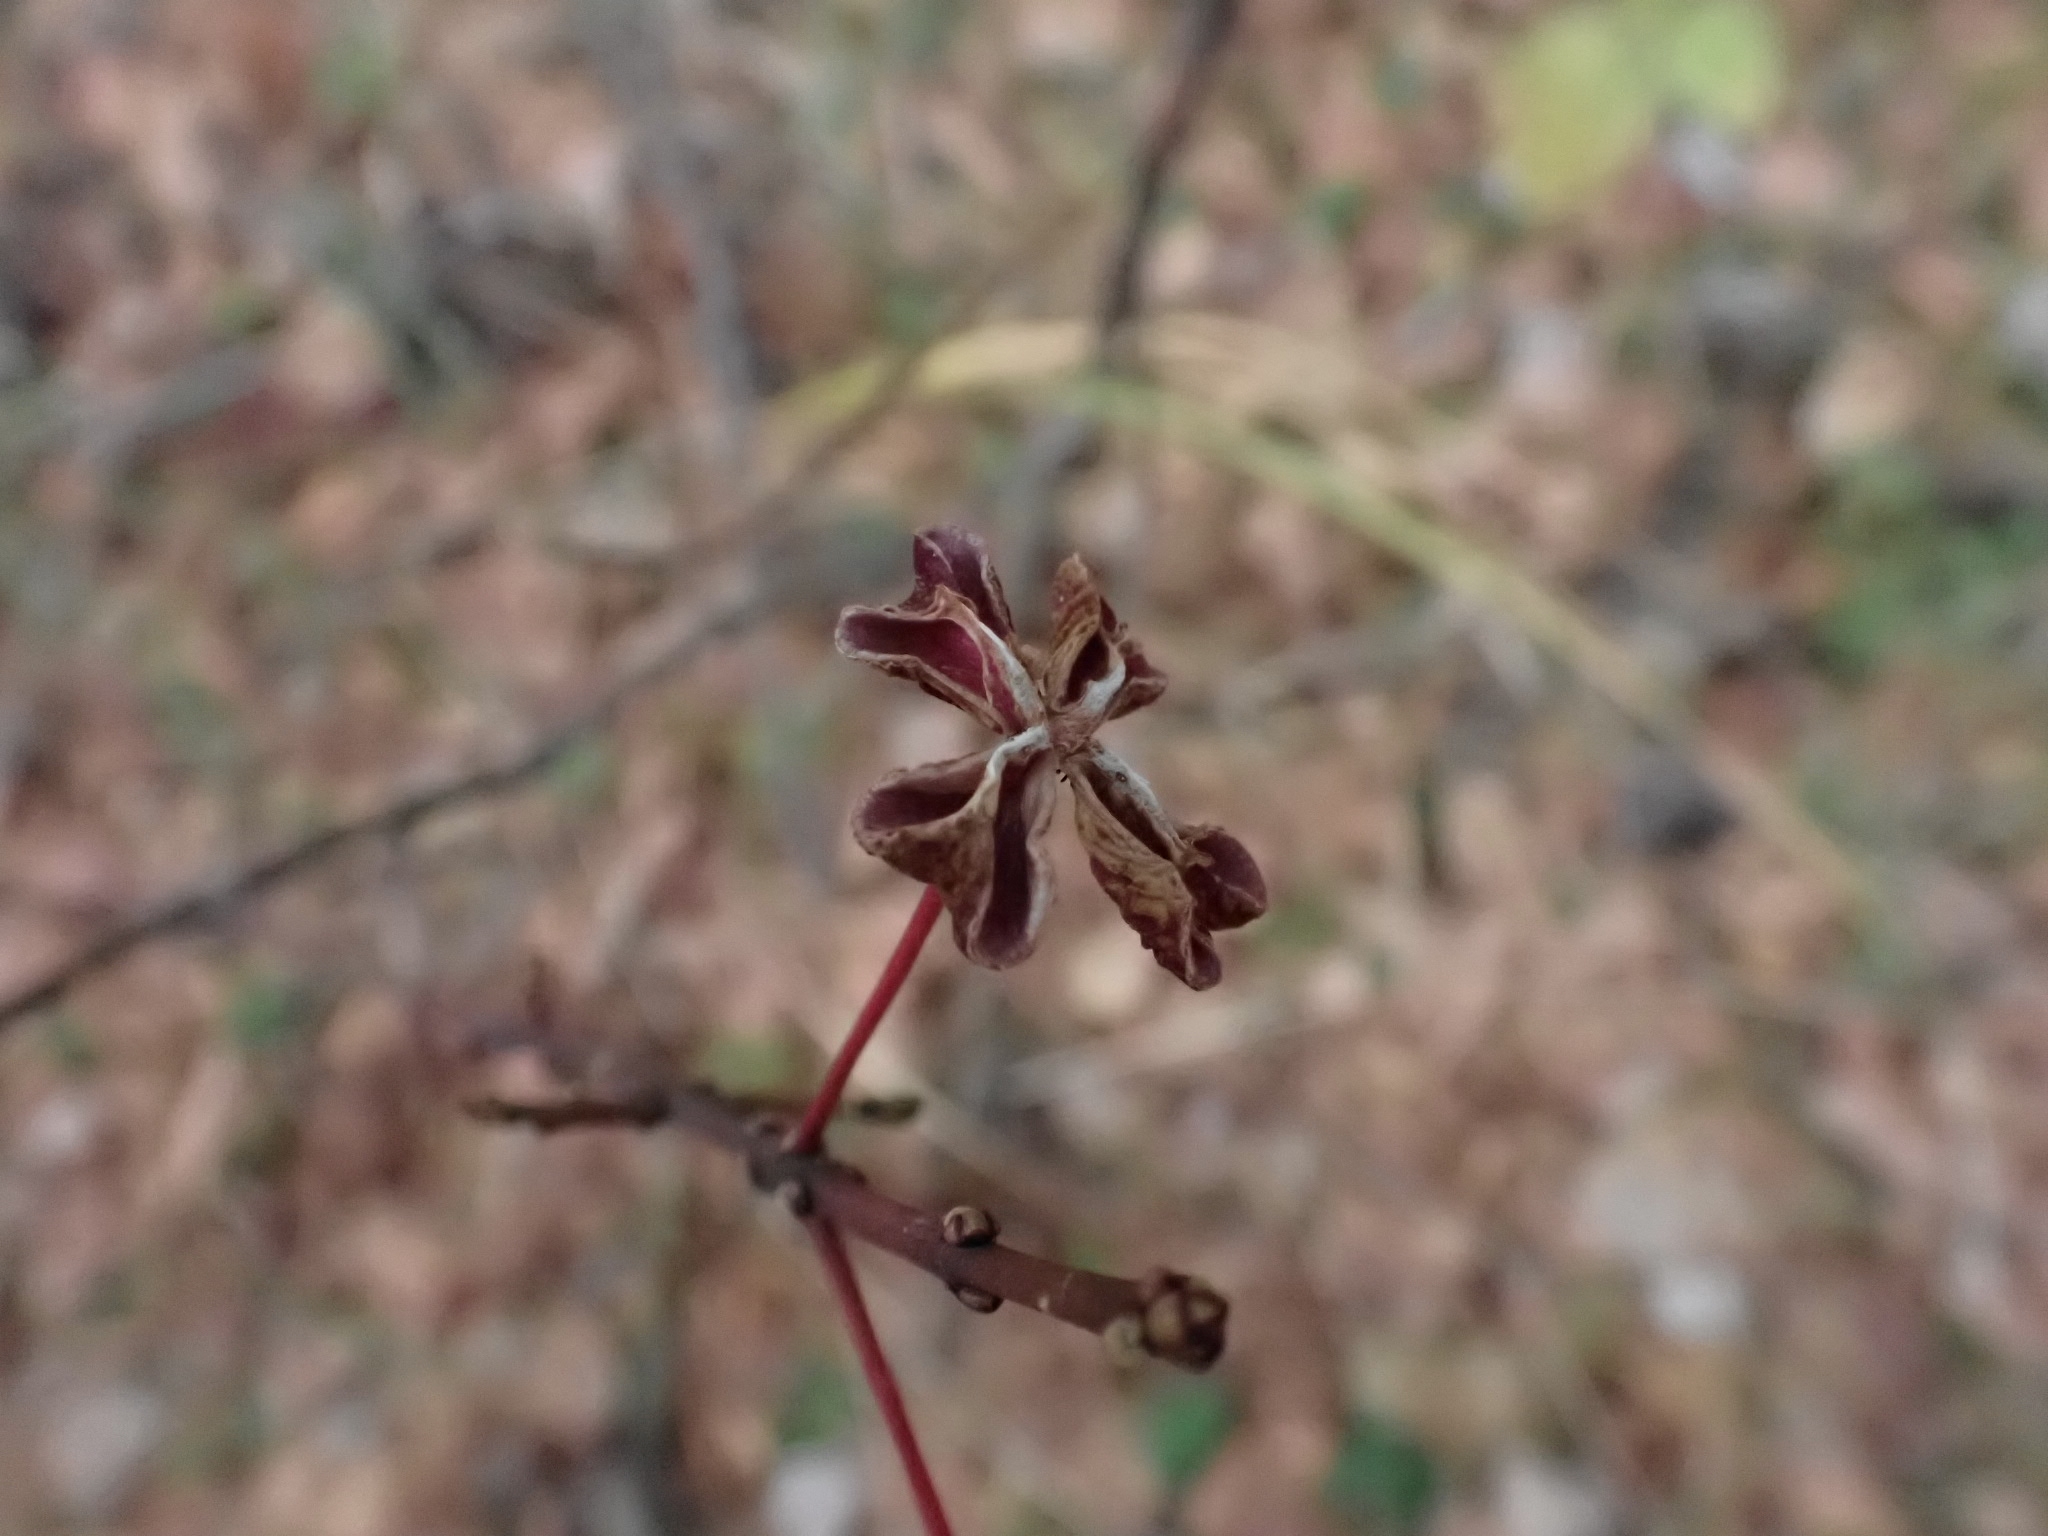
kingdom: Plantae
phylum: Tracheophyta
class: Magnoliopsida
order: Celastrales
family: Celastraceae
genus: Euonymus
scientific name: Euonymus europaeus
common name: Spindle
